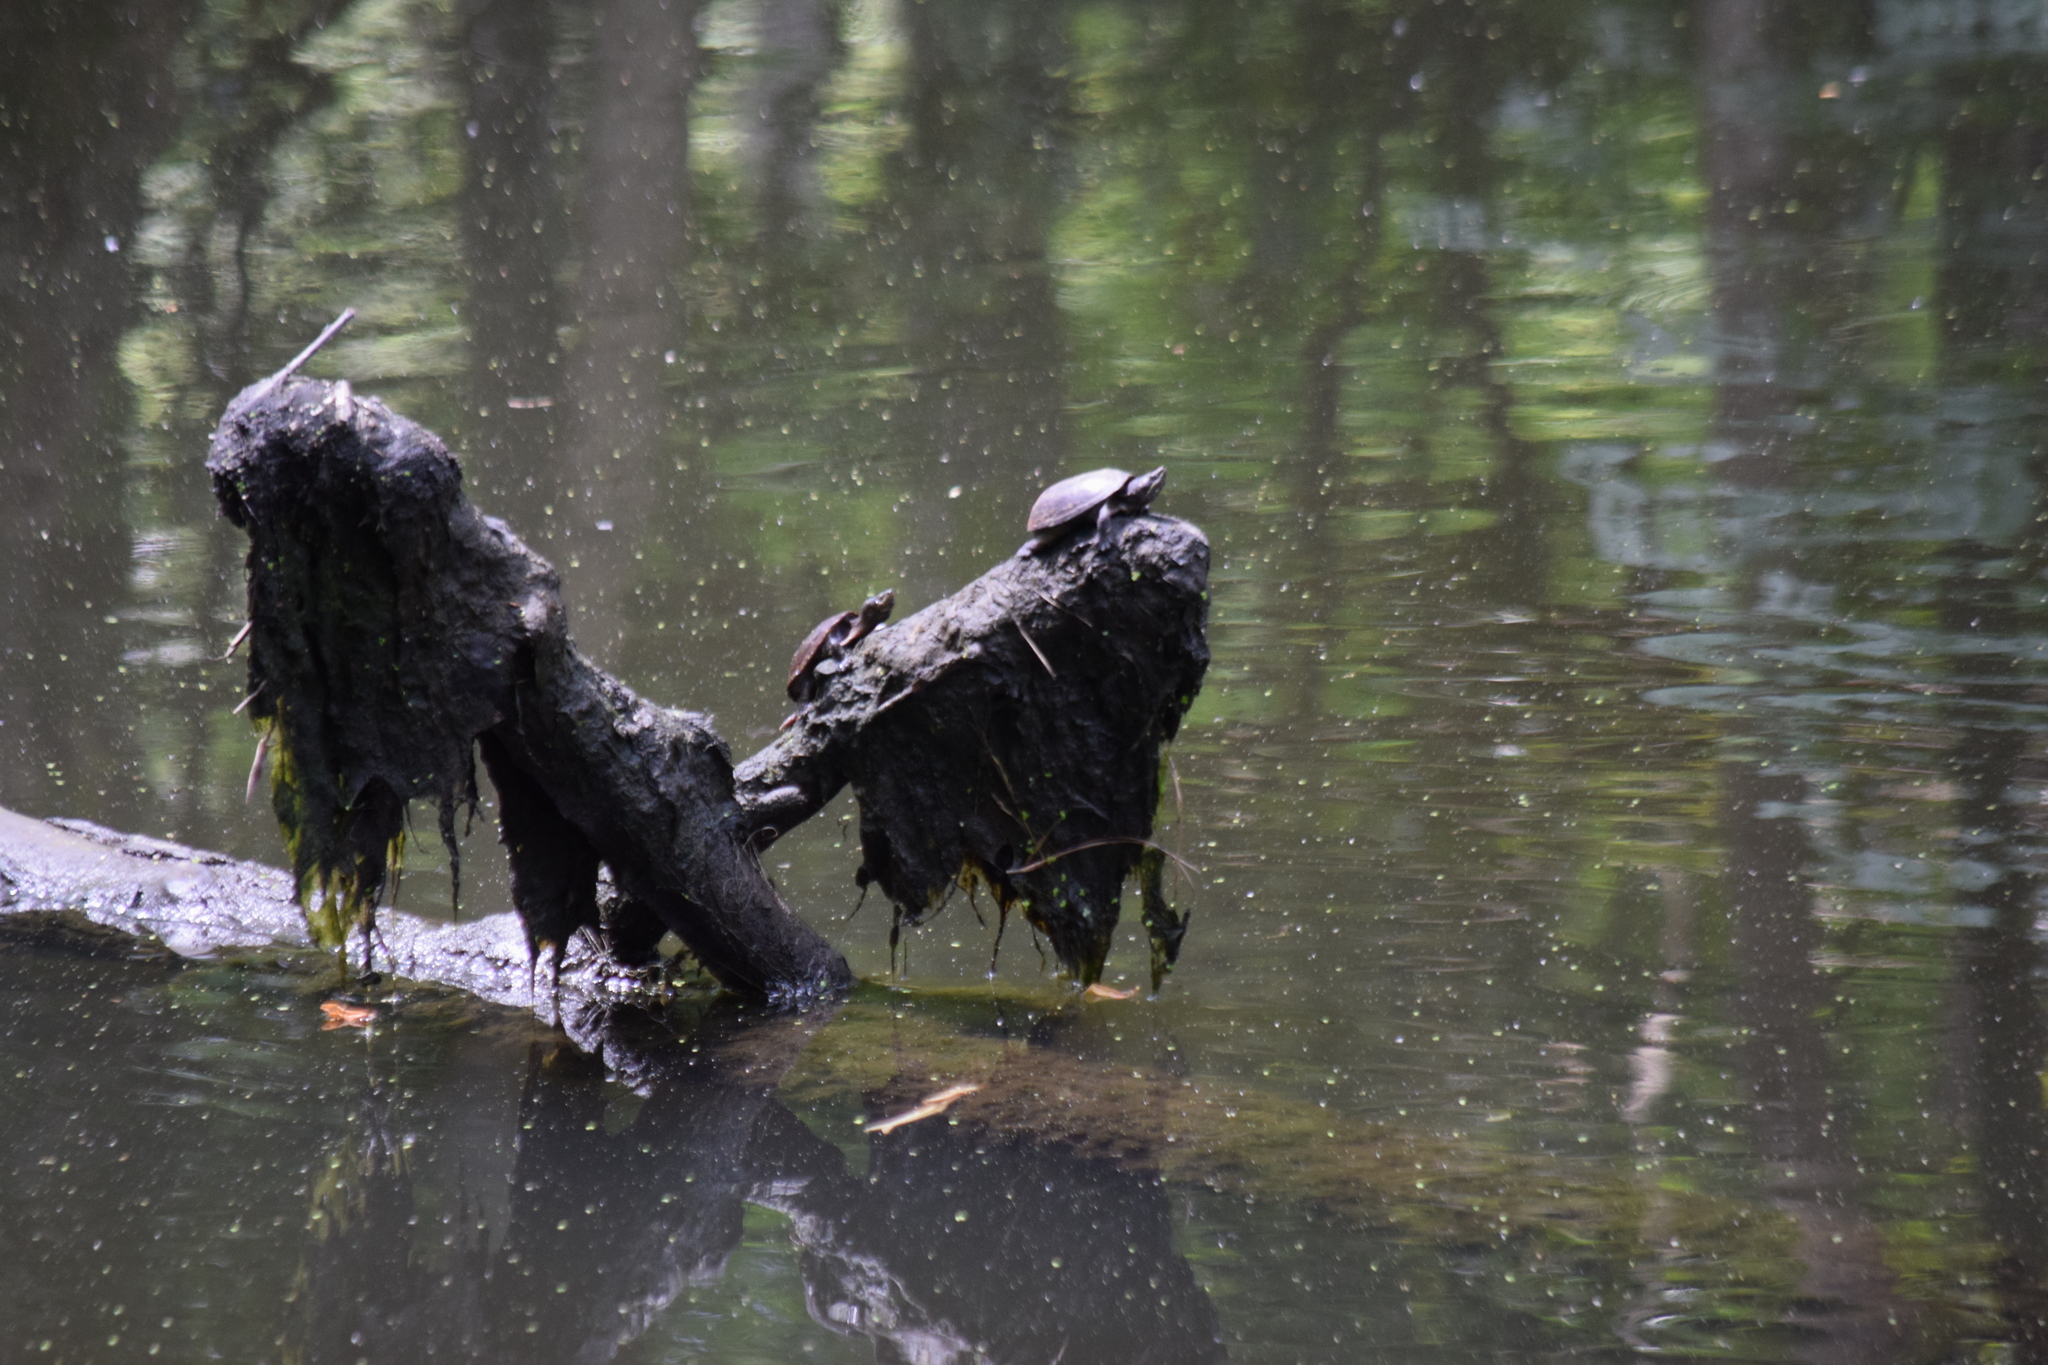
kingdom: Animalia
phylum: Chordata
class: Testudines
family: Kinosternidae
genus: Sternotherus
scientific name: Sternotherus odoratus
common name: Common musk turtle
